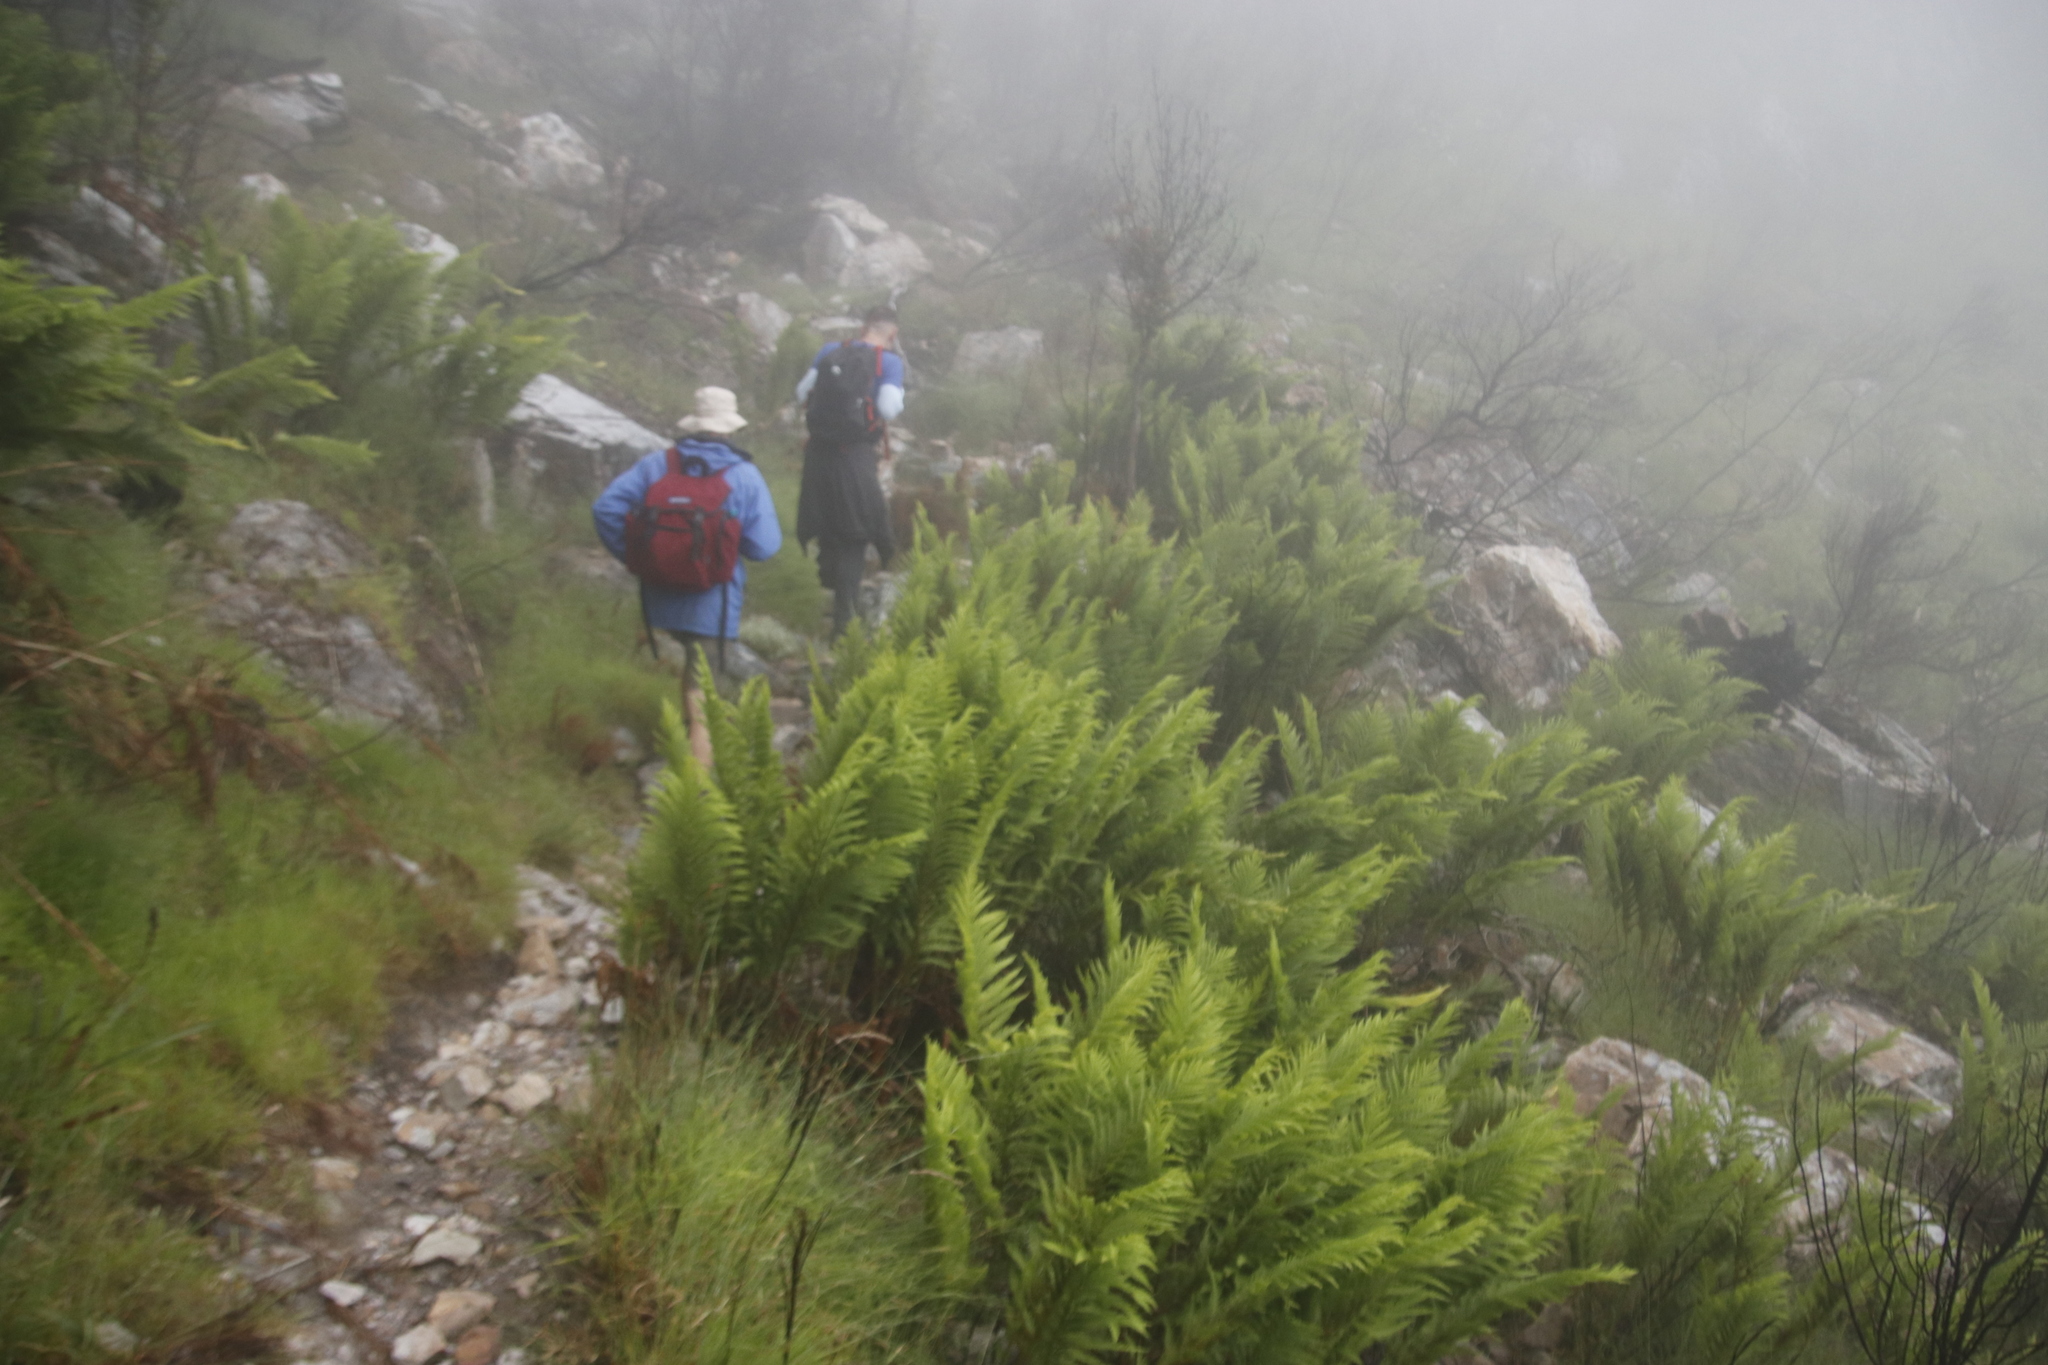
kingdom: Plantae
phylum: Tracheophyta
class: Polypodiopsida
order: Osmundales
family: Osmundaceae
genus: Todea
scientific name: Todea barbara
